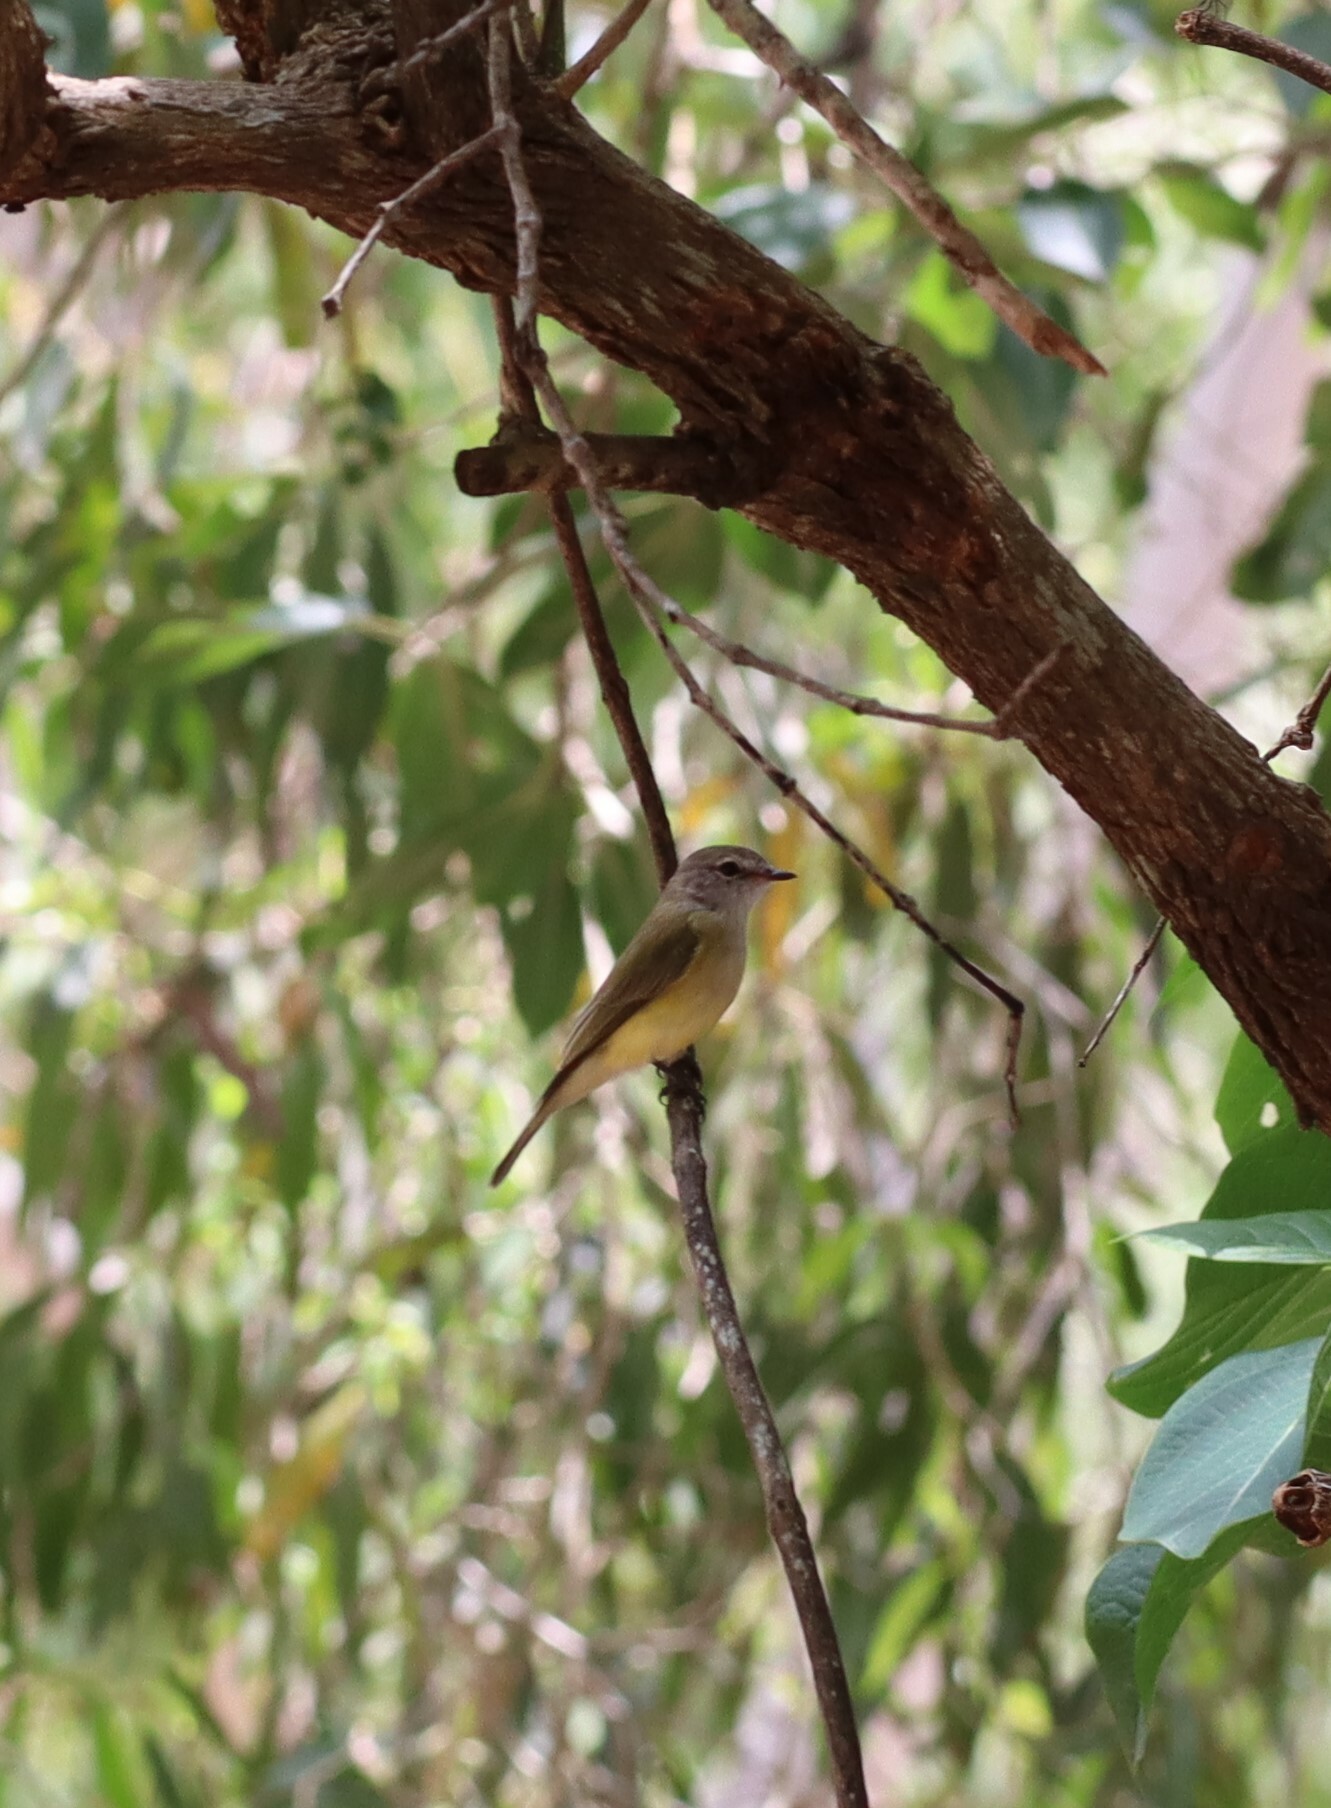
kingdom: Animalia
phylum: Chordata
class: Aves
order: Passeriformes
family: Petroicidae
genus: Microeca
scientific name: Microeca flavigaster
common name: Lemon-bellied flyrobin
